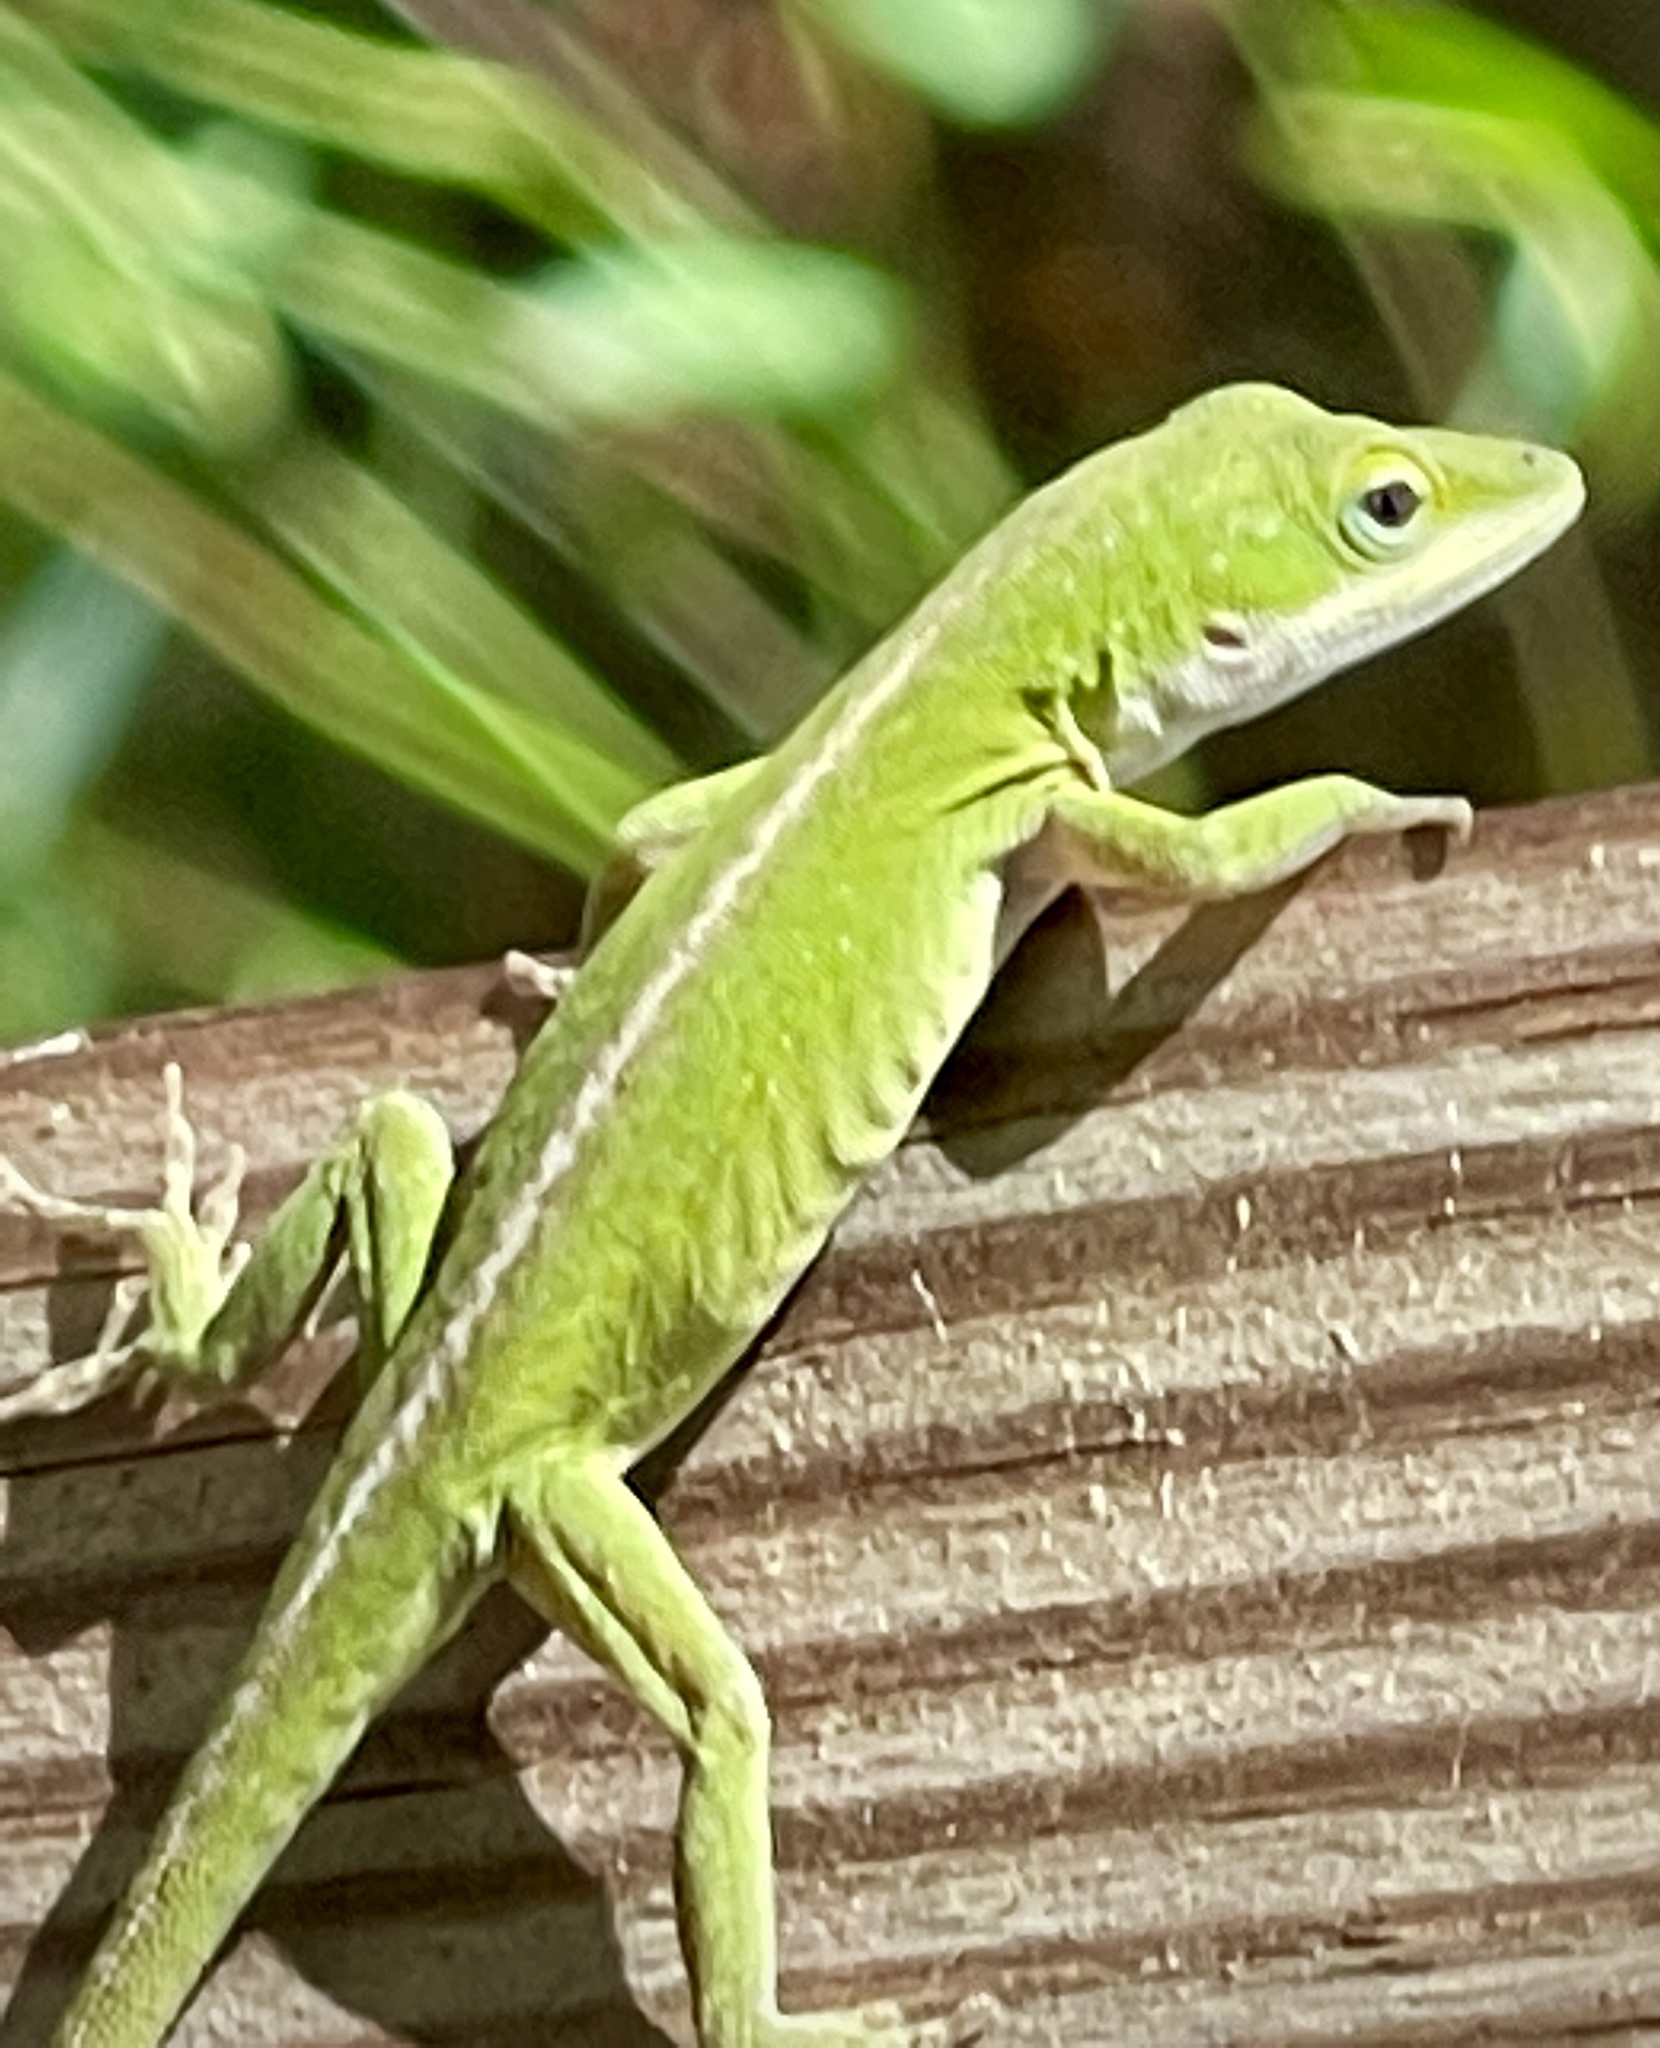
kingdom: Animalia
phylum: Chordata
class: Squamata
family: Dactyloidae
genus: Anolis
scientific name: Anolis carolinensis
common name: Green anole
